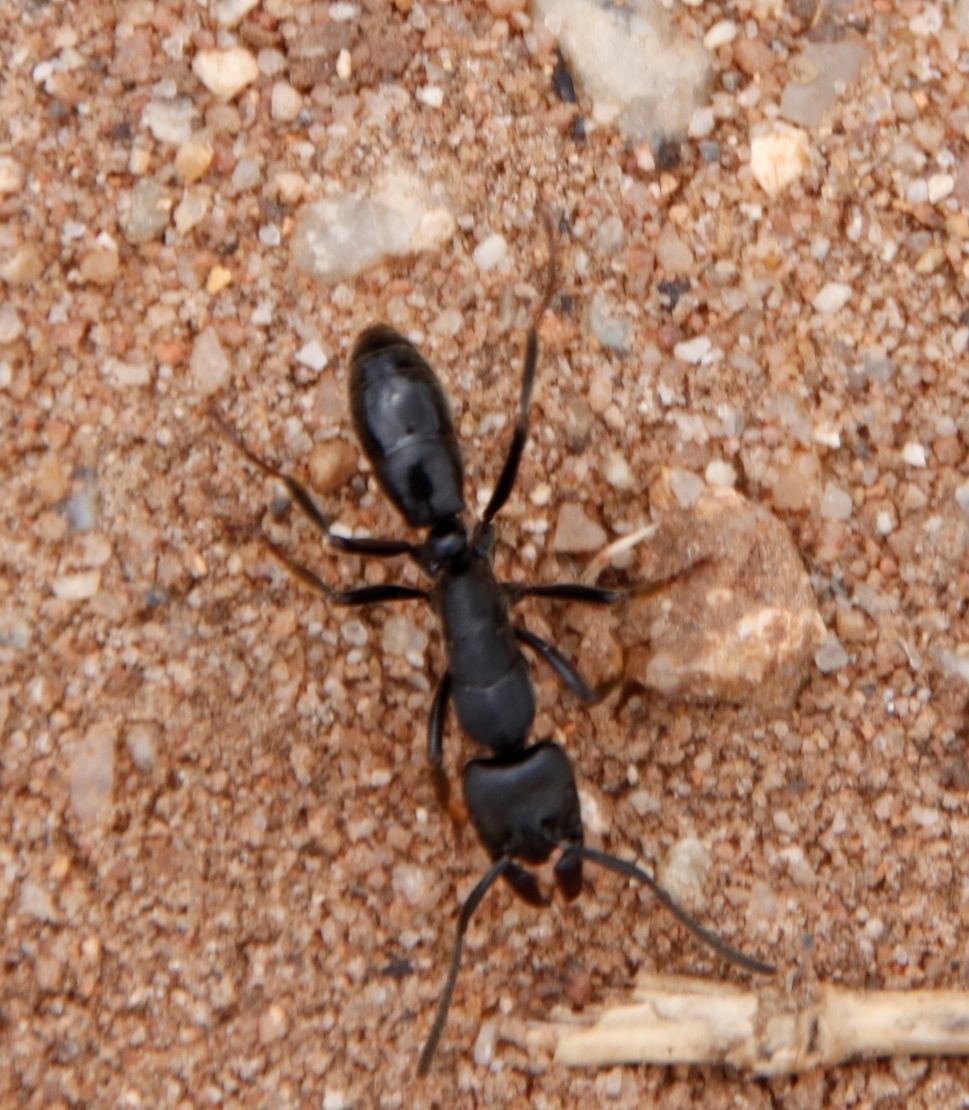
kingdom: Animalia
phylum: Arthropoda
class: Insecta
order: Hymenoptera
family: Formicidae
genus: Paltothyreus
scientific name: Paltothyreus tarsatus
